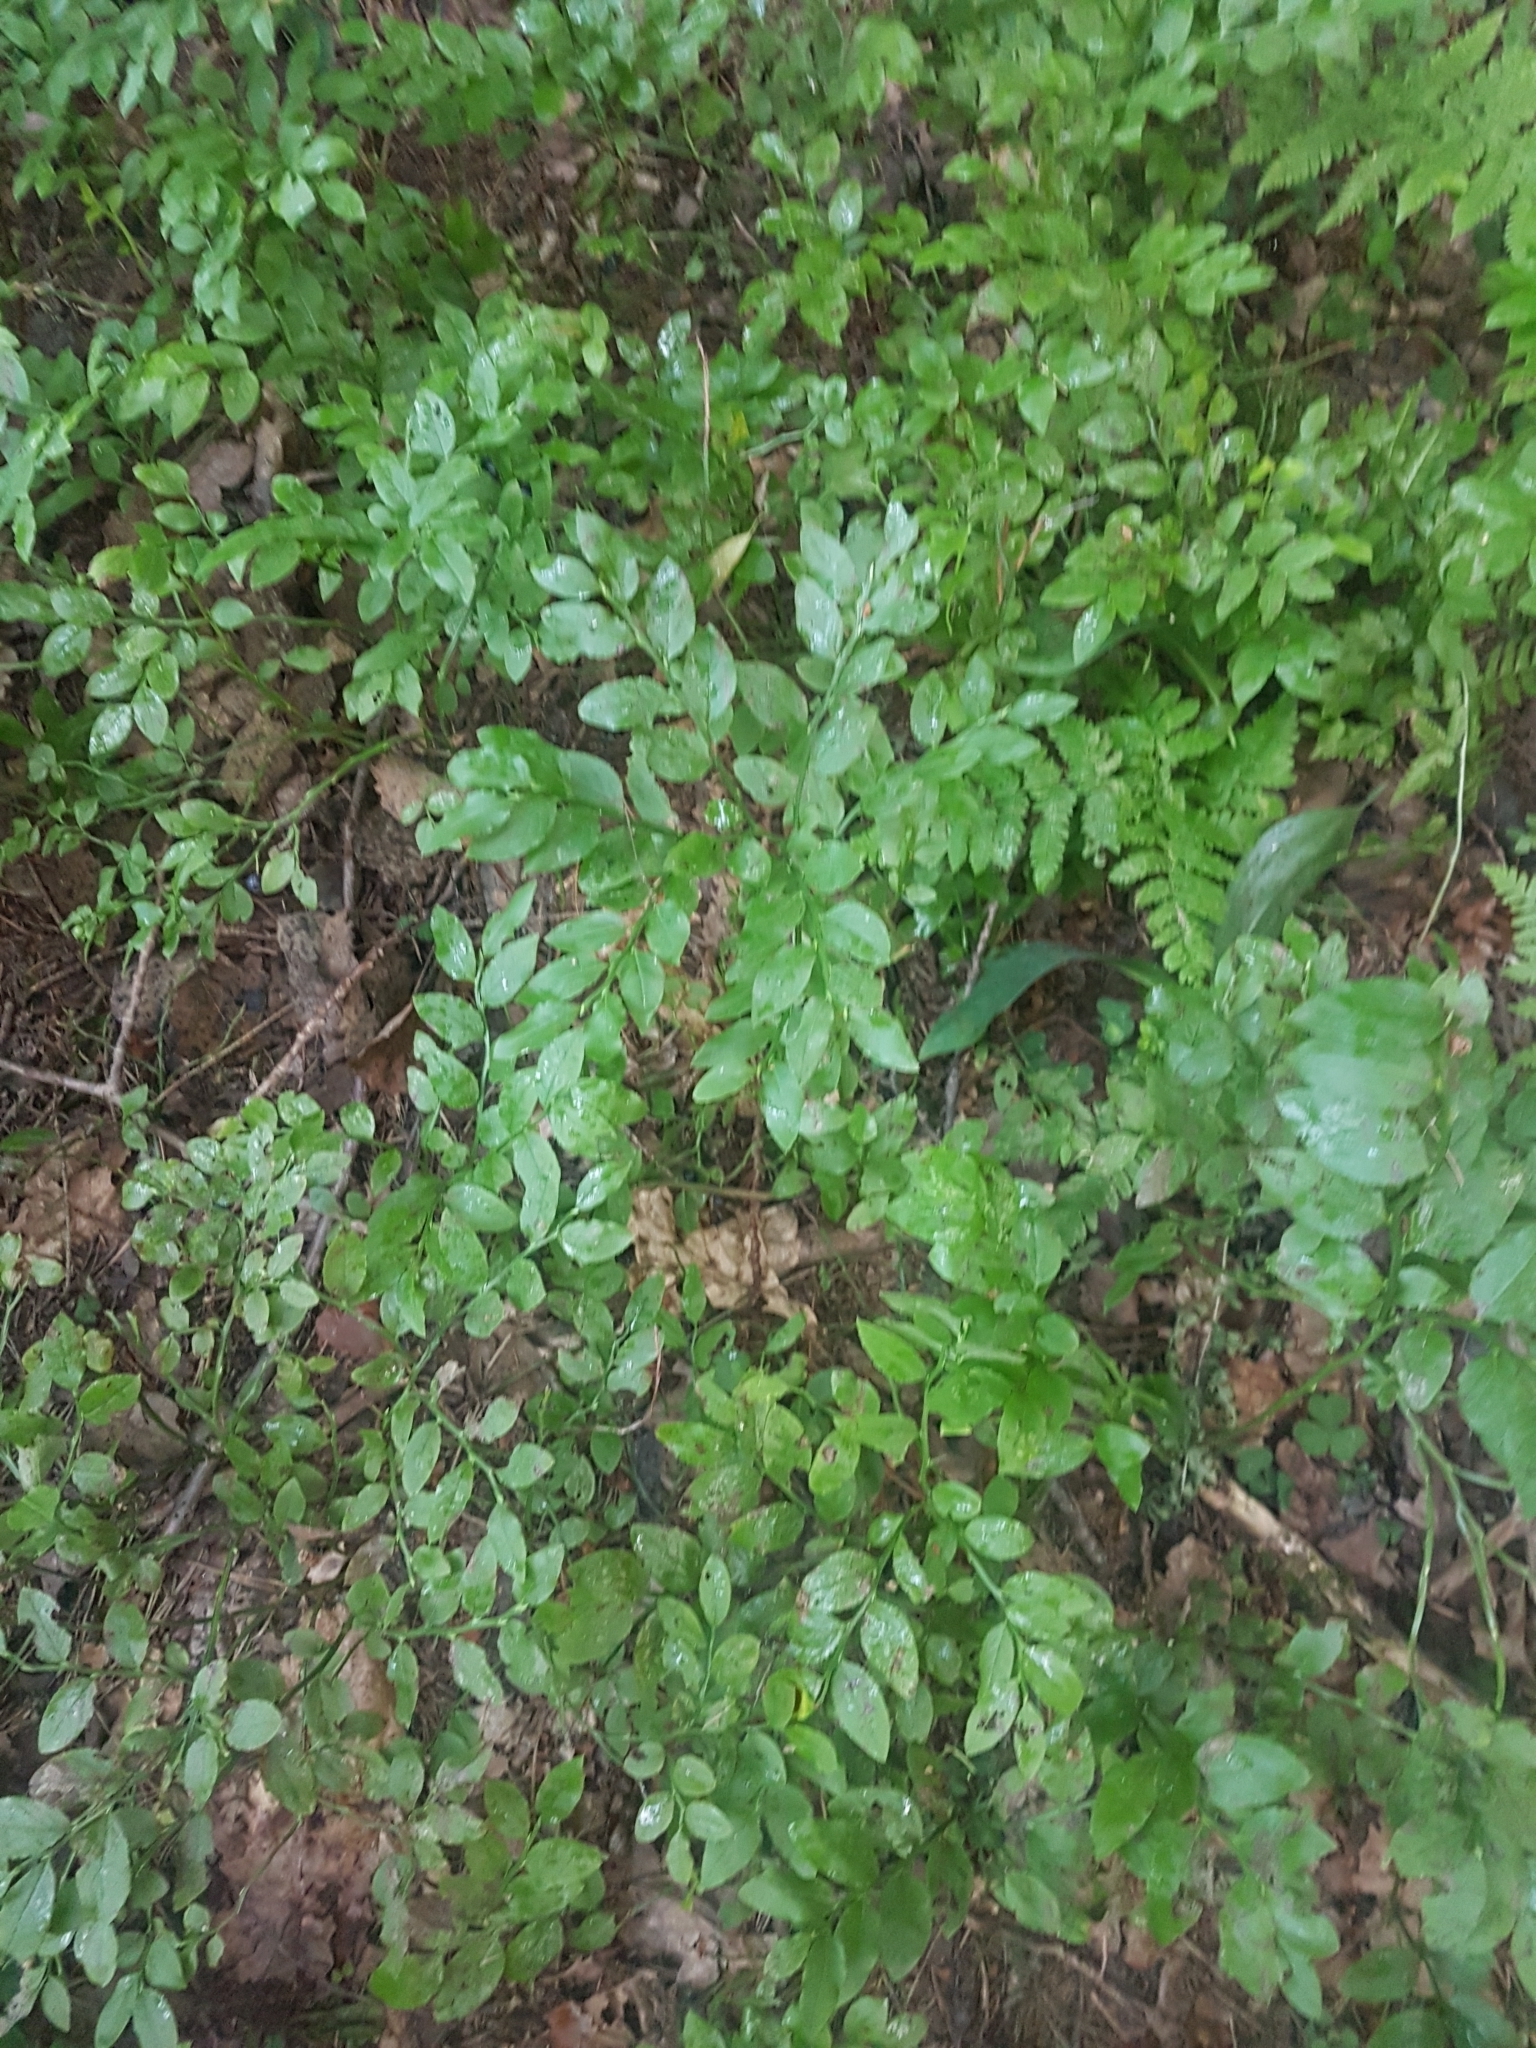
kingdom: Plantae
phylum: Tracheophyta
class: Magnoliopsida
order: Ericales
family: Ericaceae
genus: Vaccinium
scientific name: Vaccinium myrtillus
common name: Bilberry
